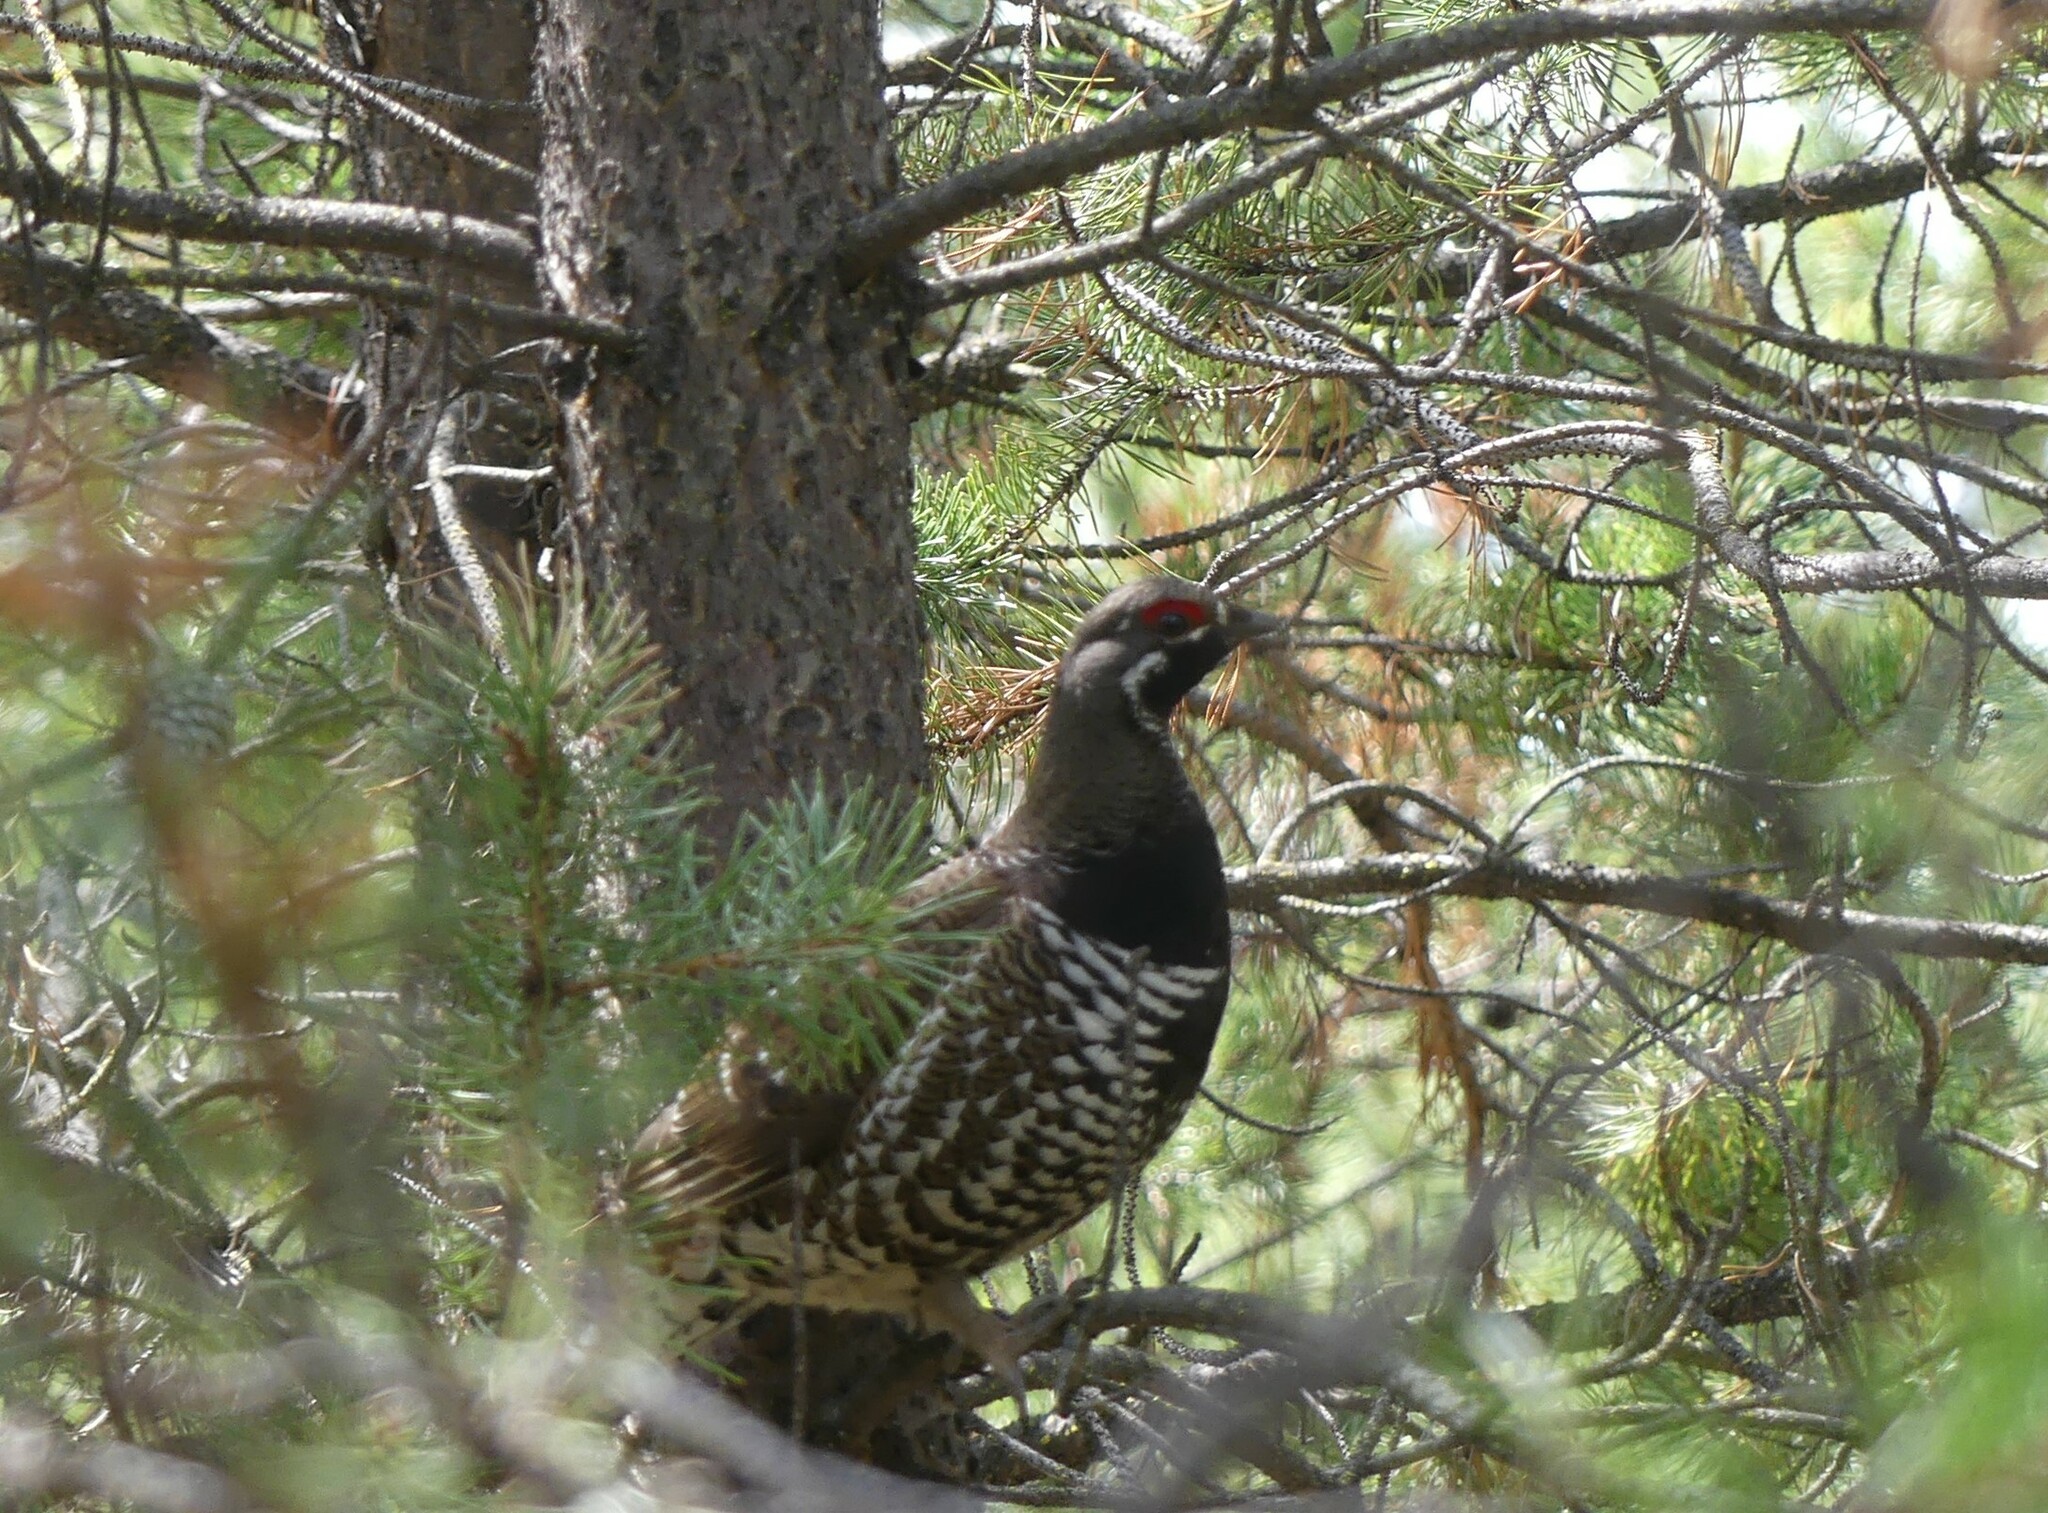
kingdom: Animalia
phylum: Chordata
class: Aves
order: Galliformes
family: Phasianidae
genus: Canachites
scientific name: Canachites canadensis
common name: Spruce grouse
